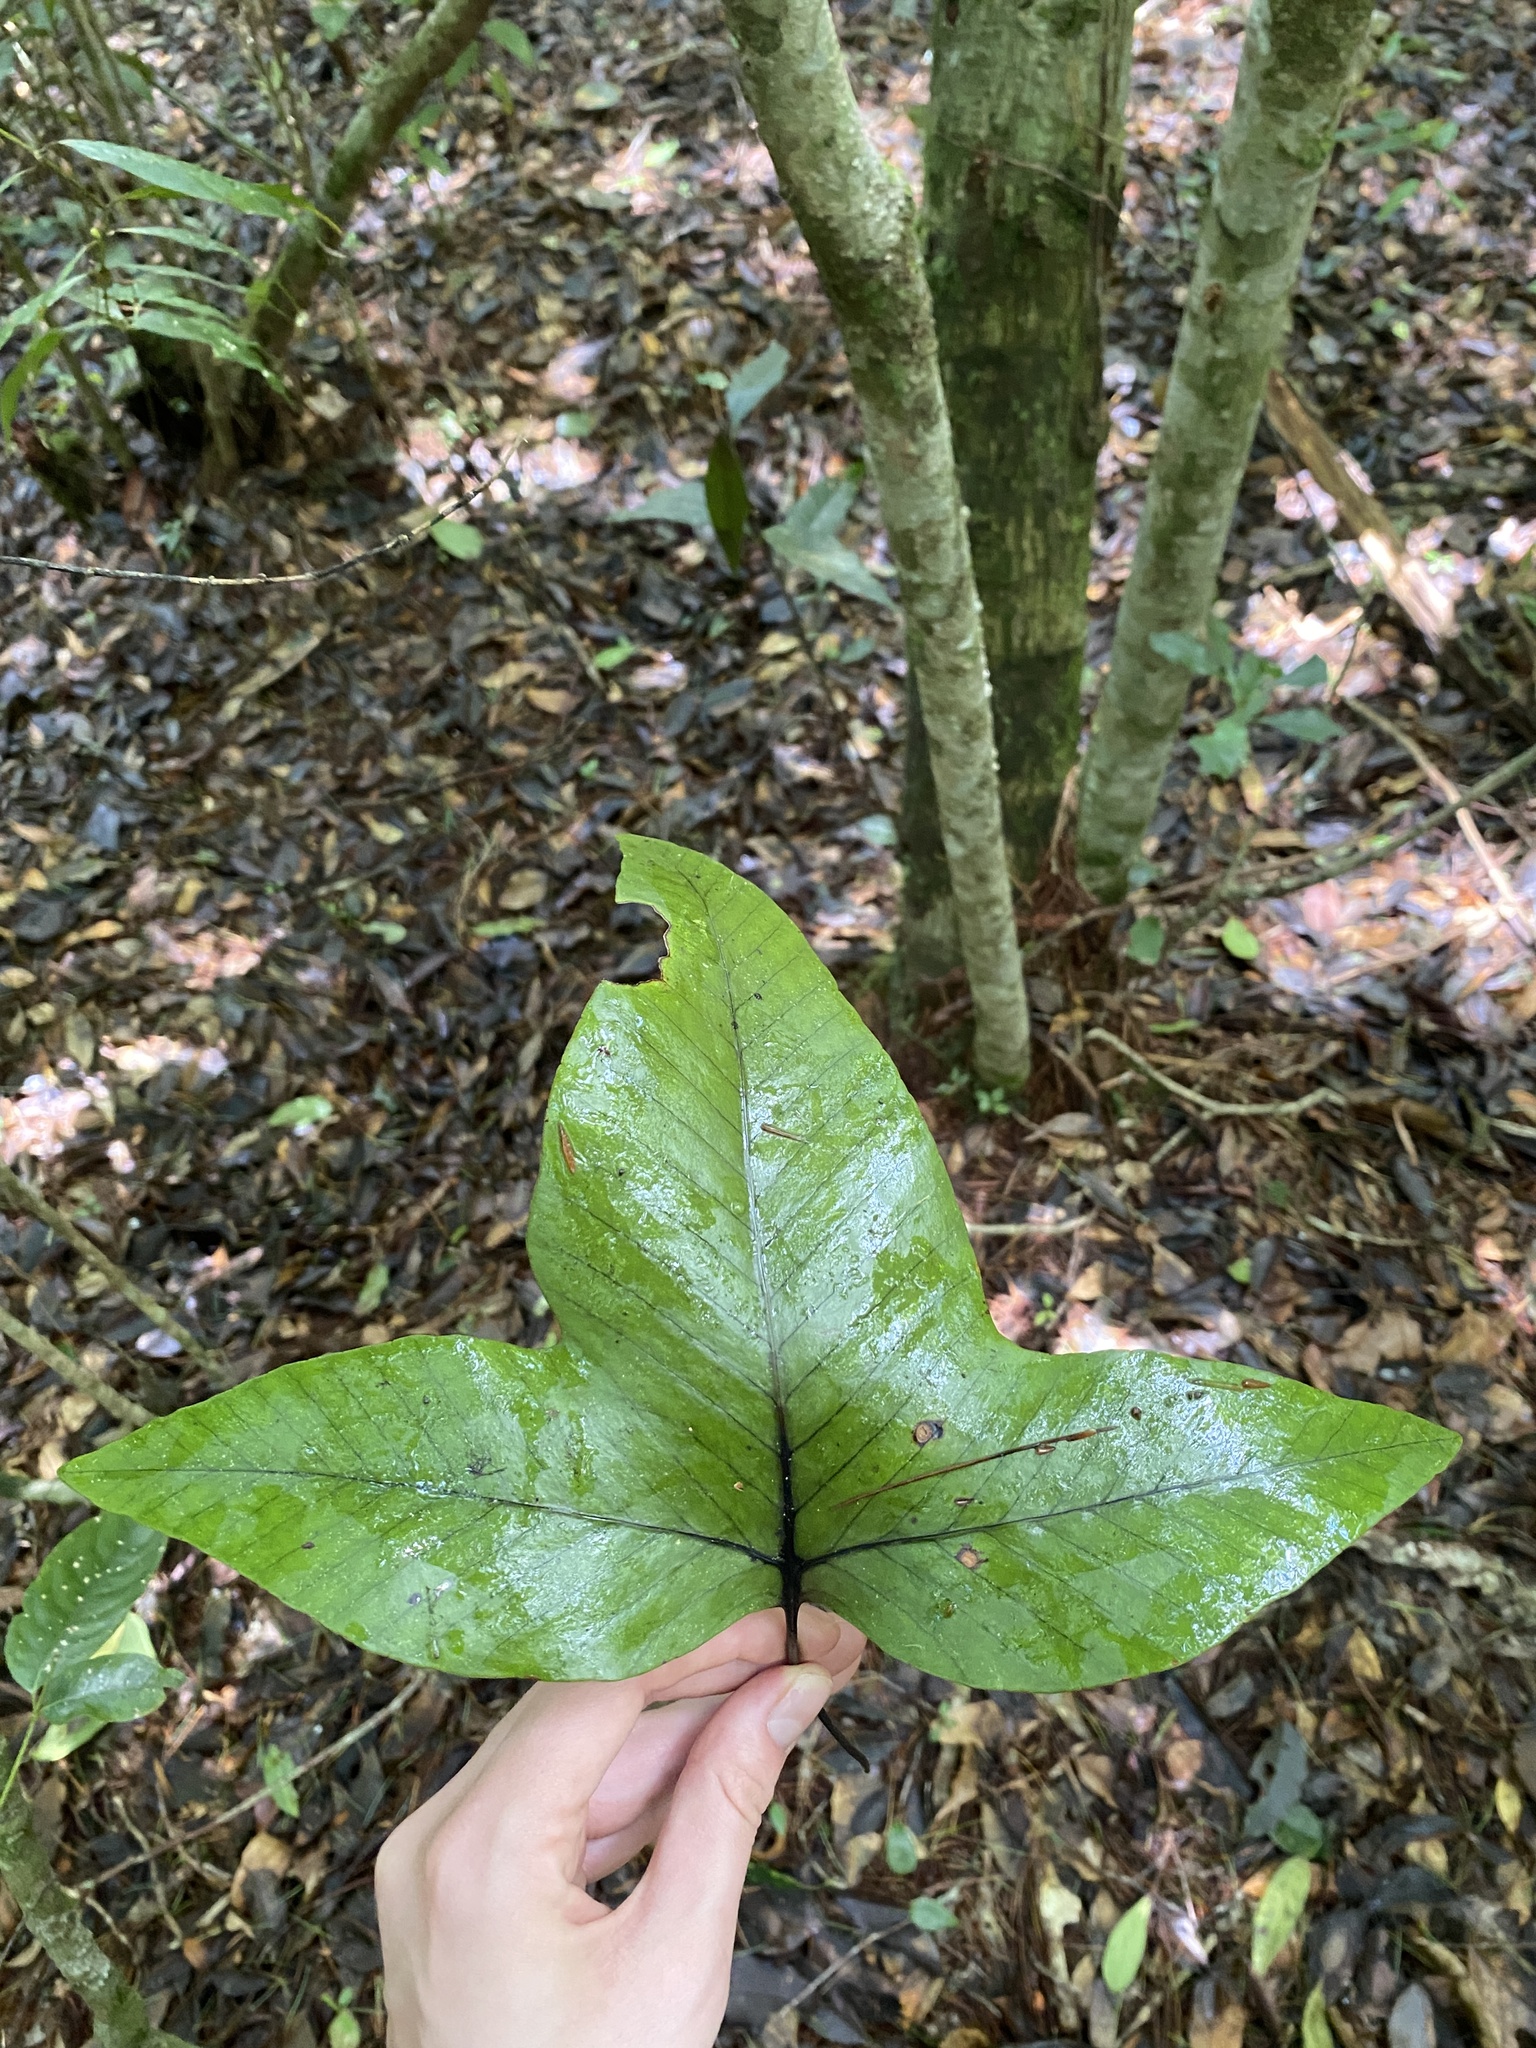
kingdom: Plantae
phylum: Tracheophyta
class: Polypodiopsida
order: Polypodiales
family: Polypodiaceae
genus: Selliguea
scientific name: Selliguea triloba
